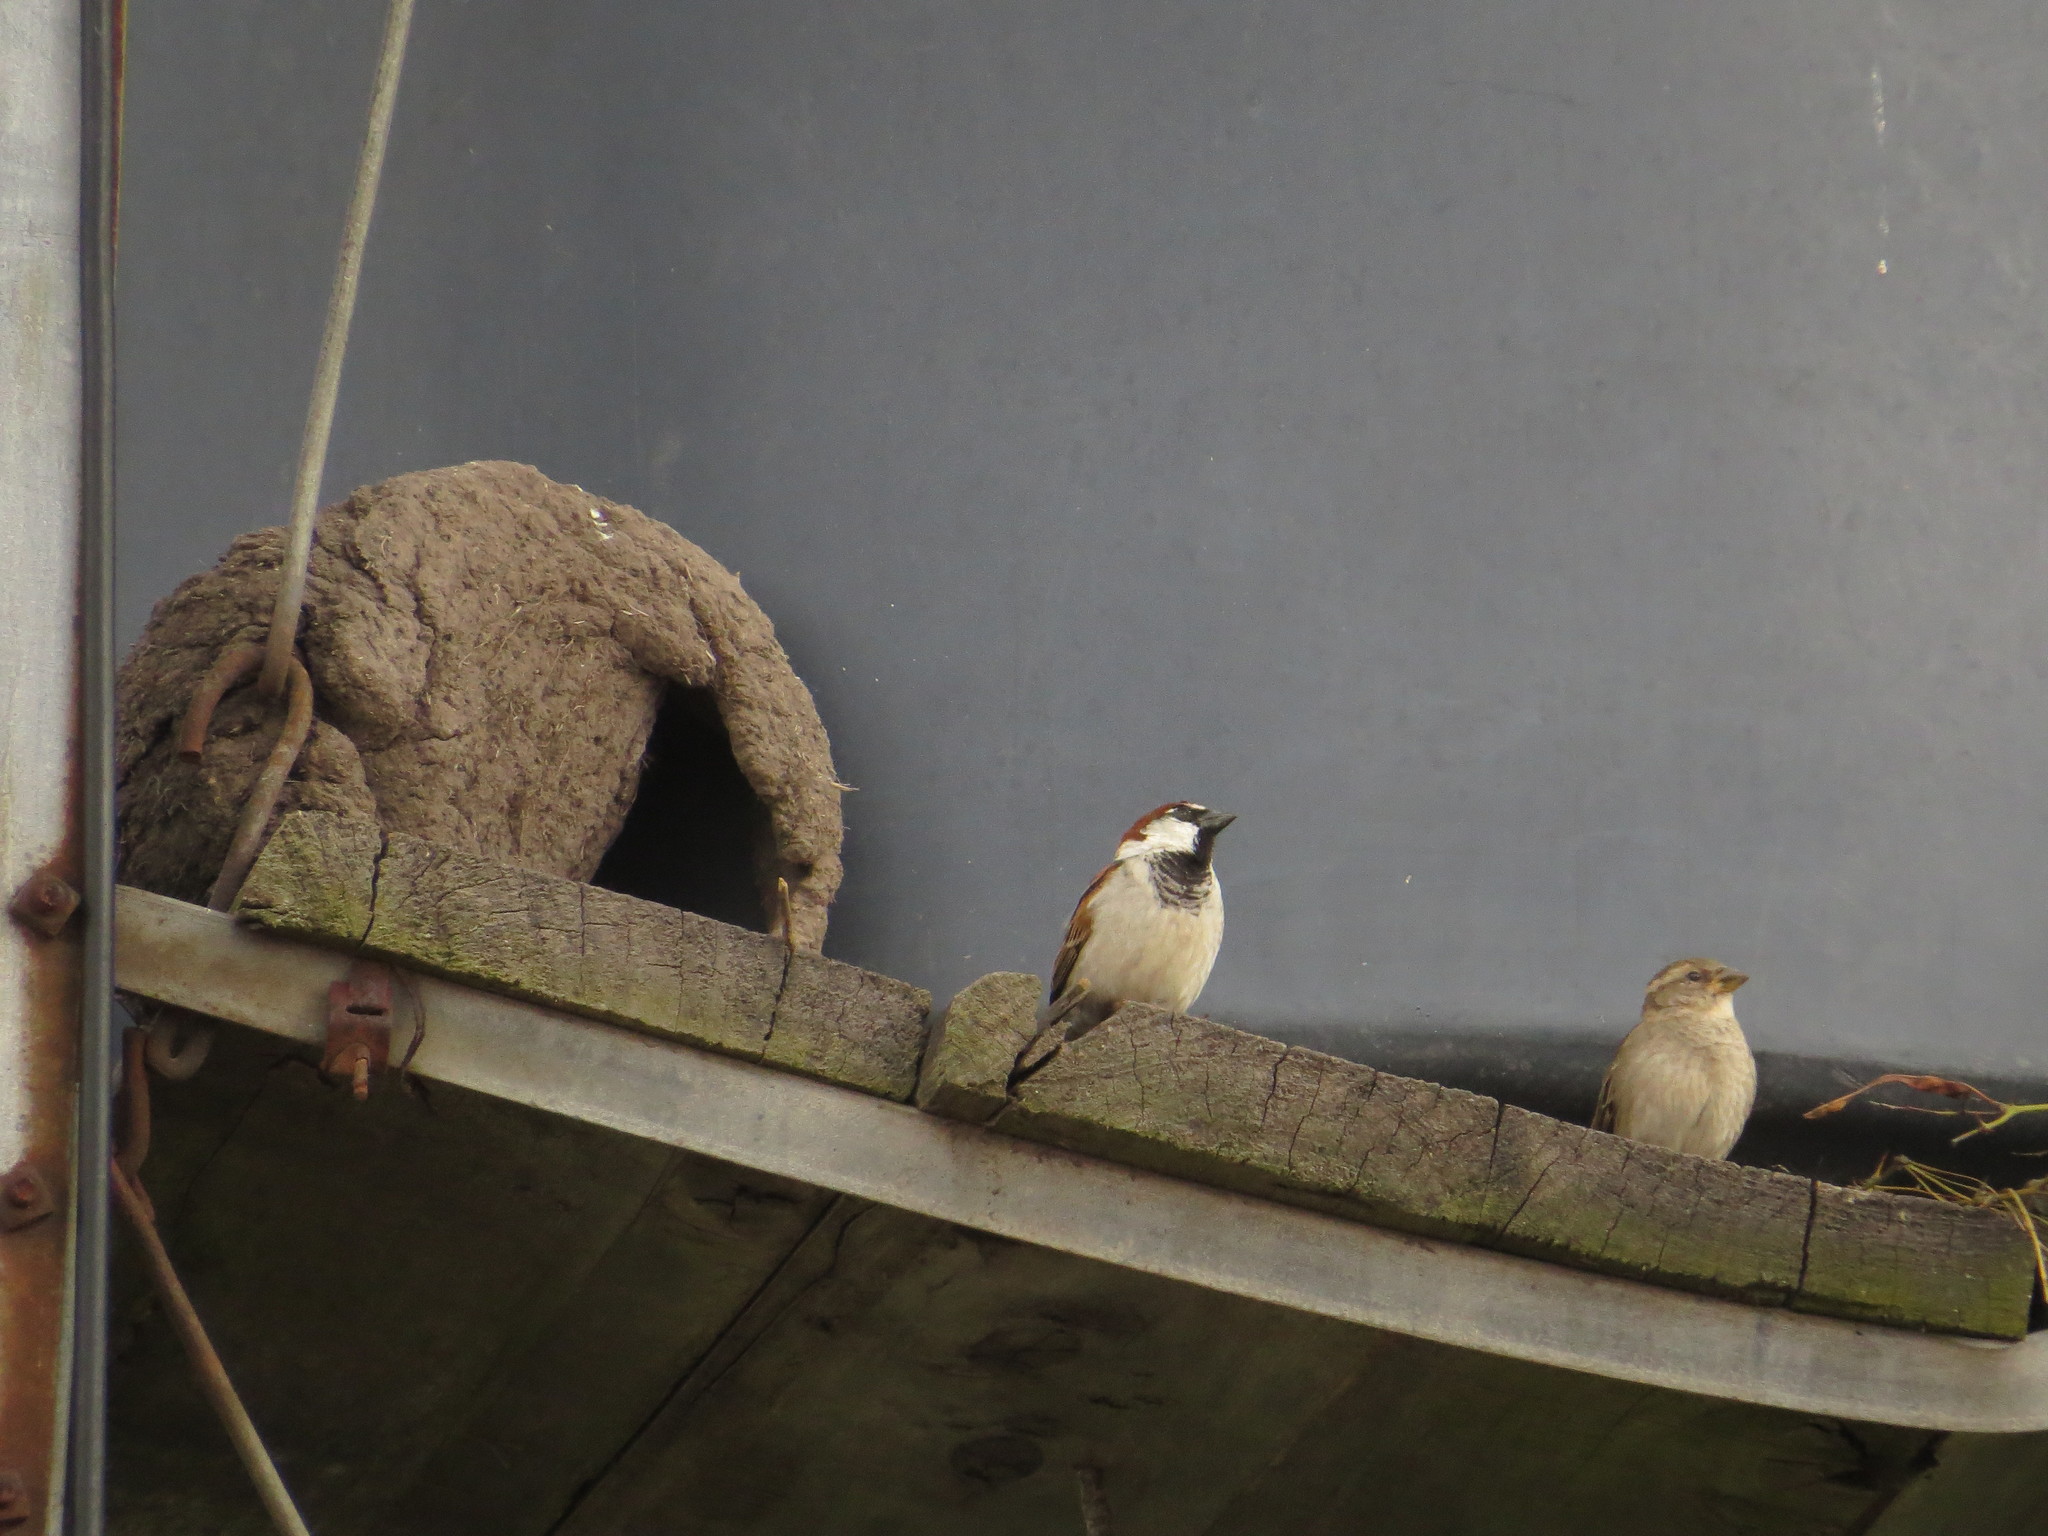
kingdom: Animalia
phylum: Chordata
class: Aves
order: Passeriformes
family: Furnariidae
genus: Furnarius
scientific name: Furnarius rufus
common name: Rufous hornero
